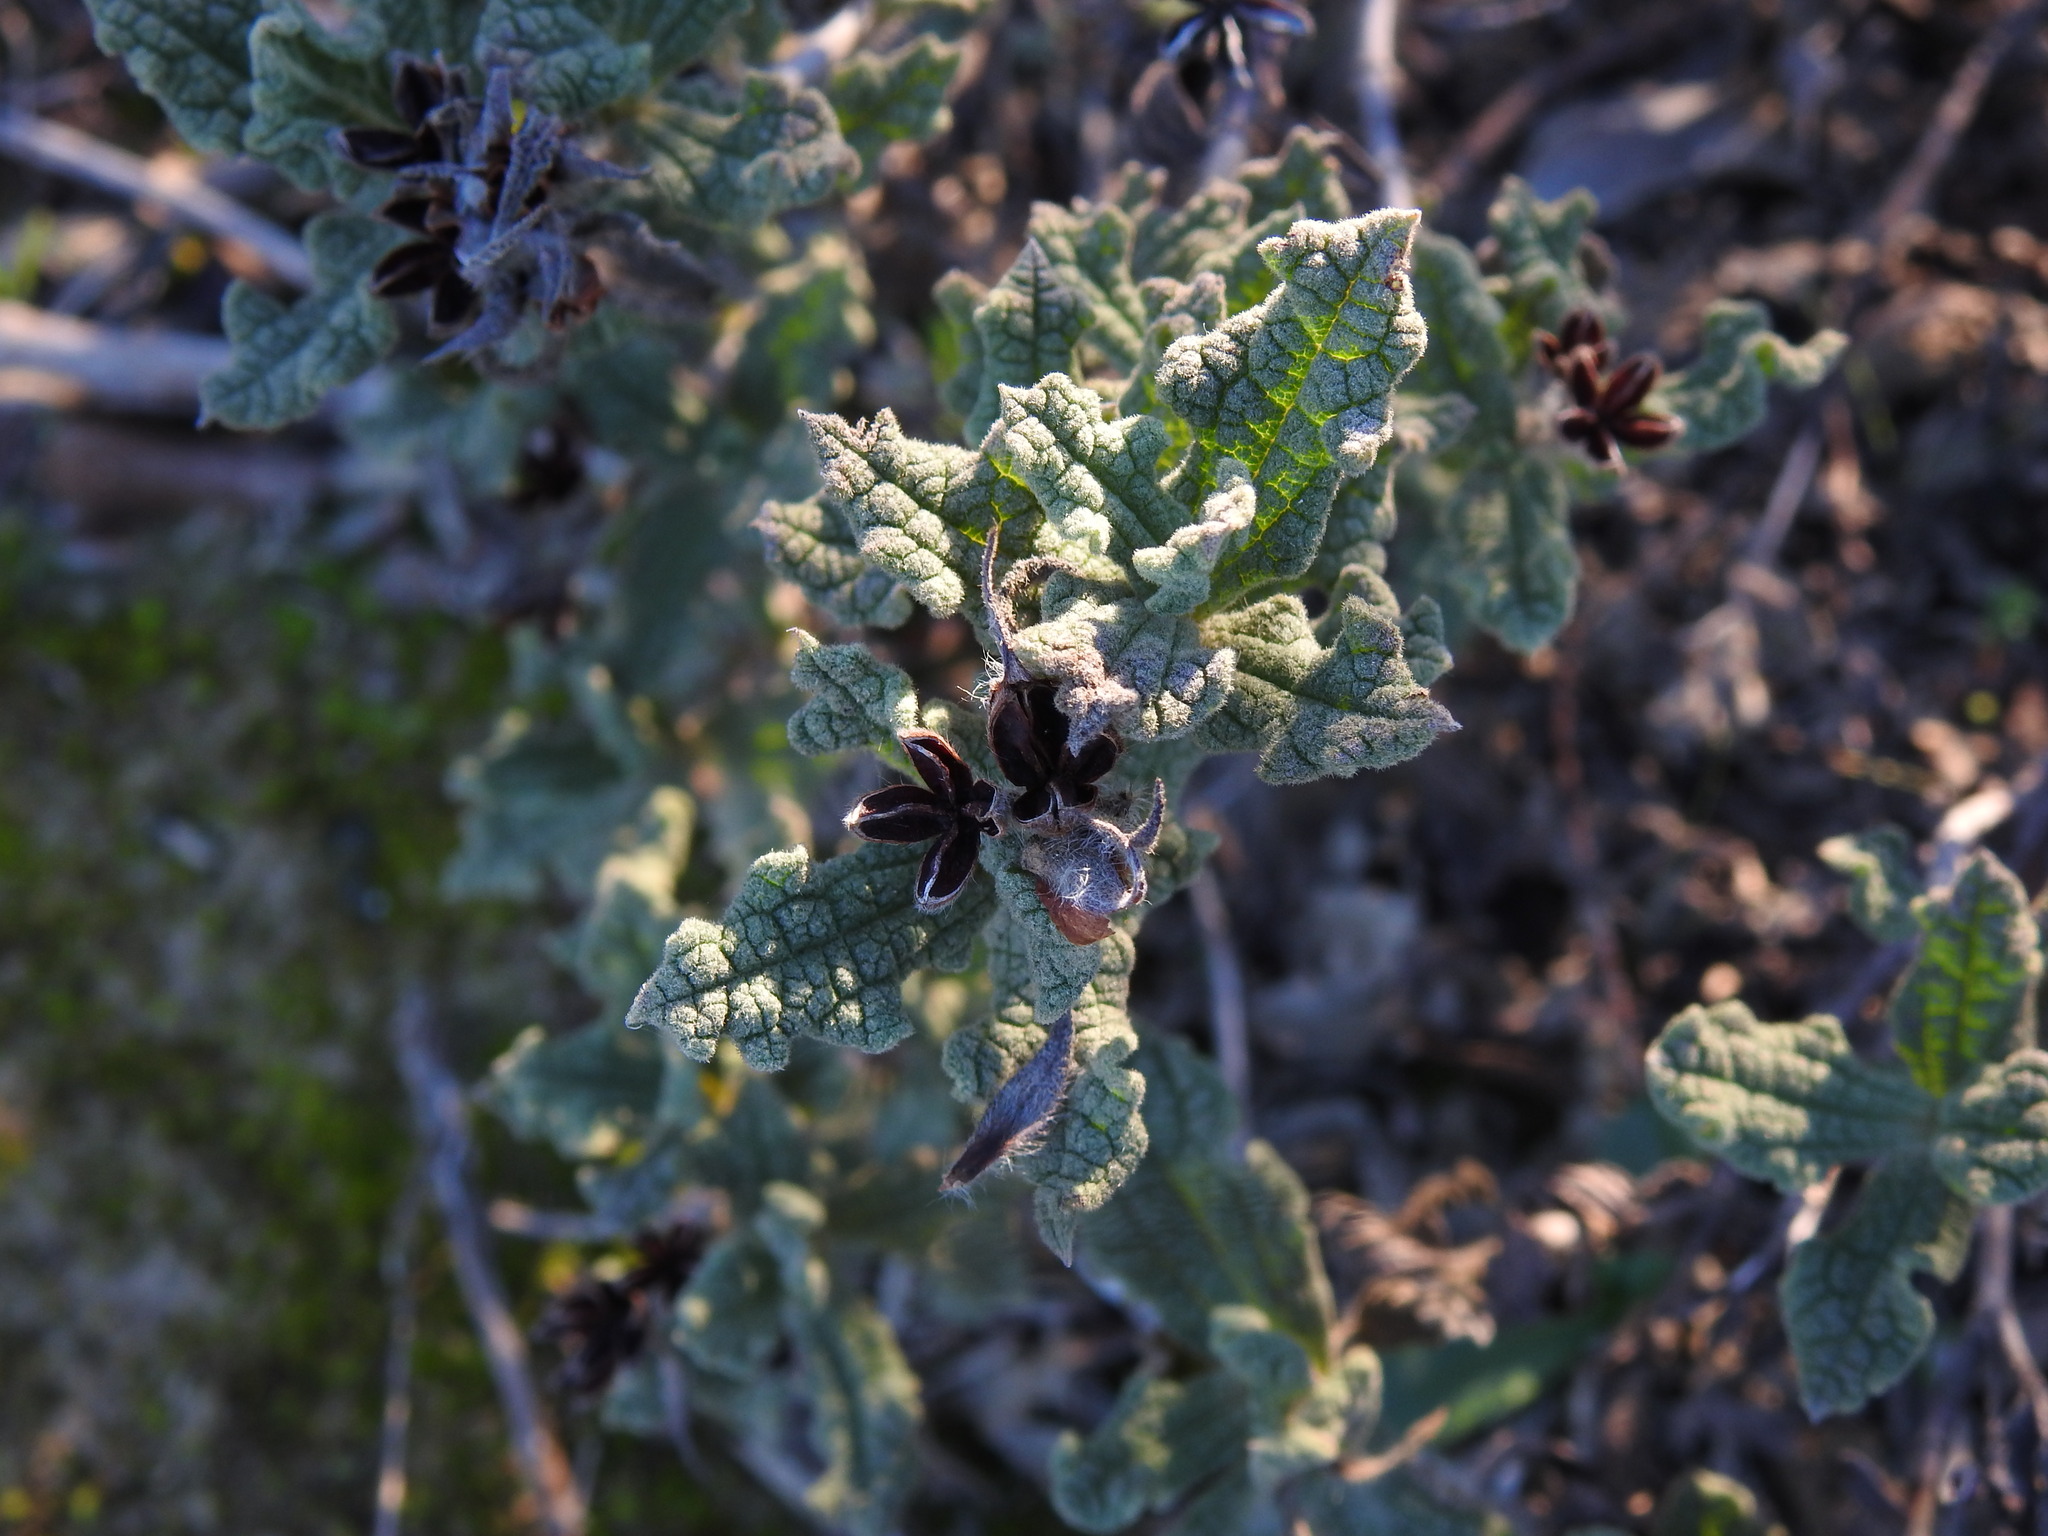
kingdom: Plantae
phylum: Tracheophyta
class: Magnoliopsida
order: Malvales
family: Cistaceae
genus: Cistus
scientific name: Cistus crispus
